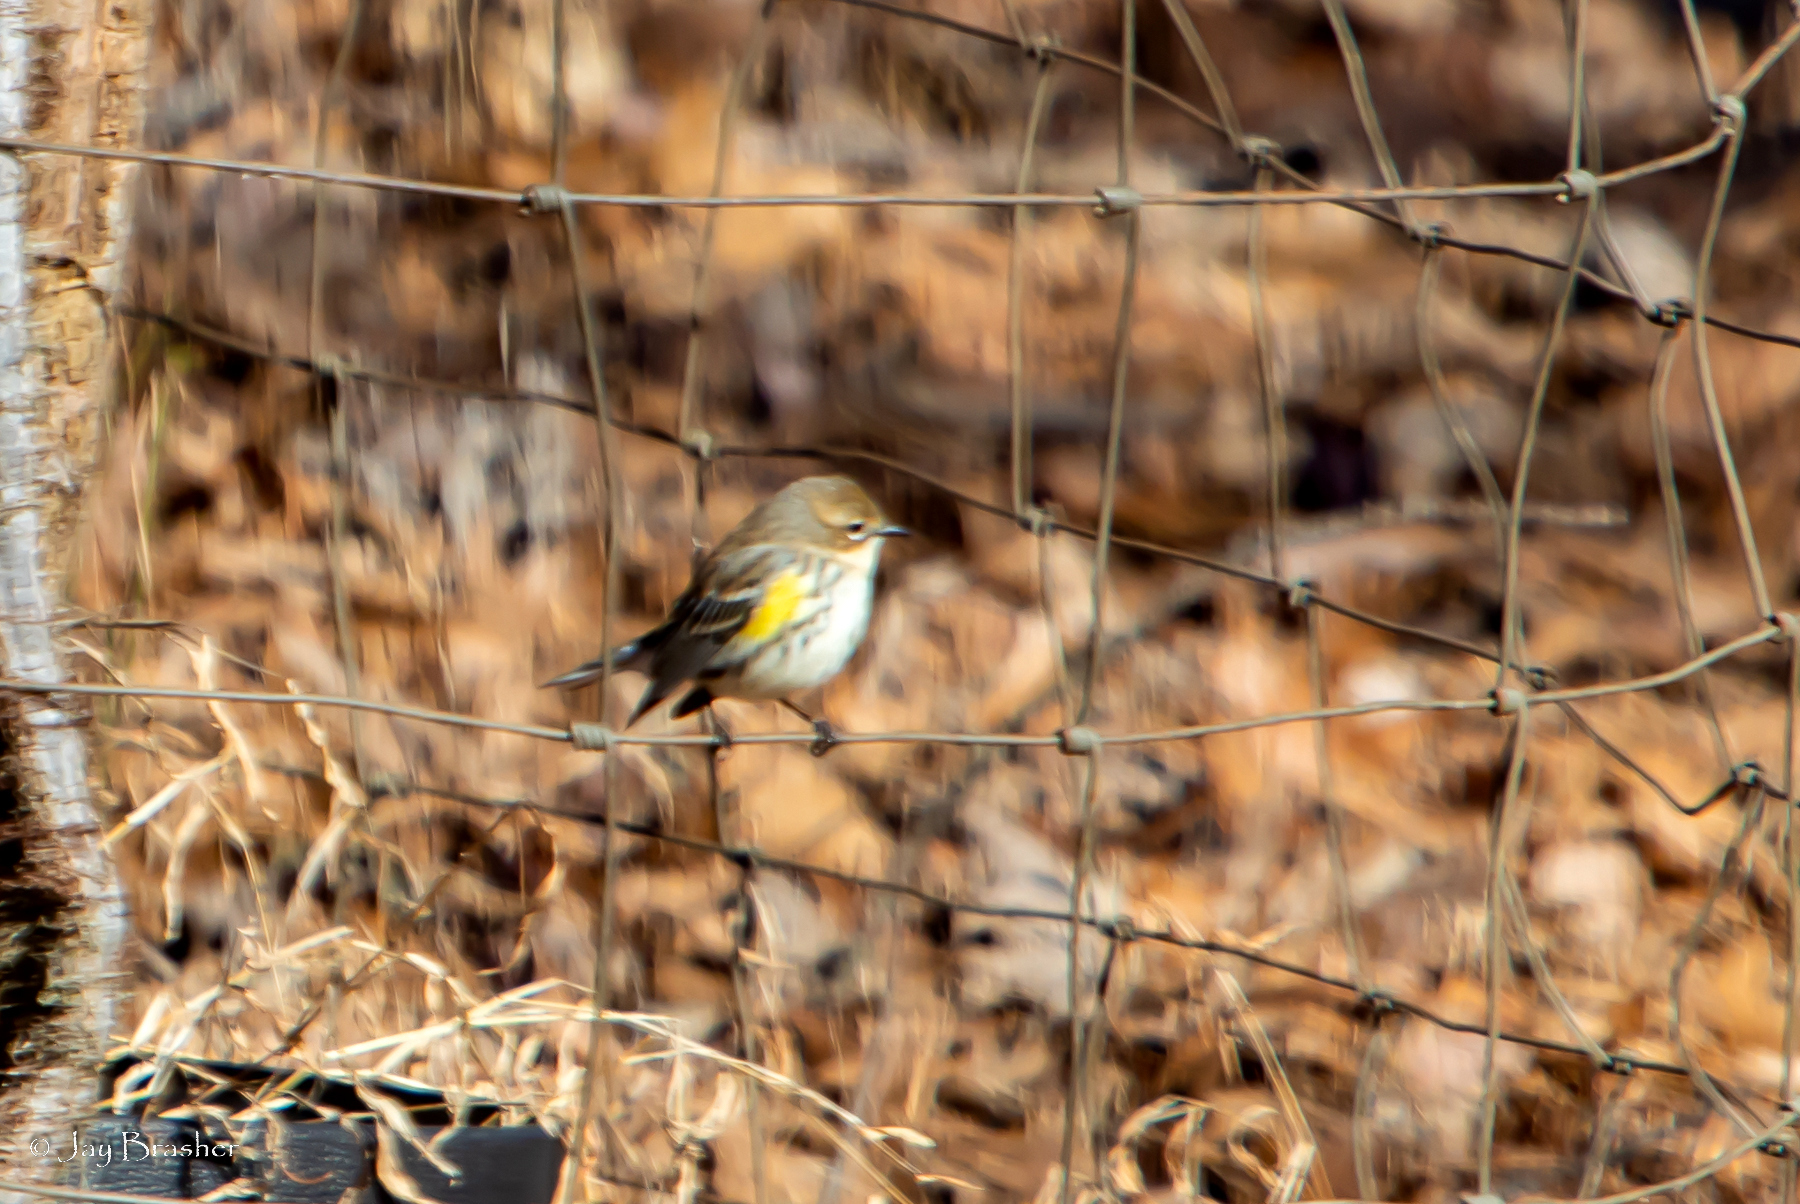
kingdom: Animalia
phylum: Chordata
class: Aves
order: Passeriformes
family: Parulidae
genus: Setophaga
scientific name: Setophaga coronata
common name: Myrtle warbler
